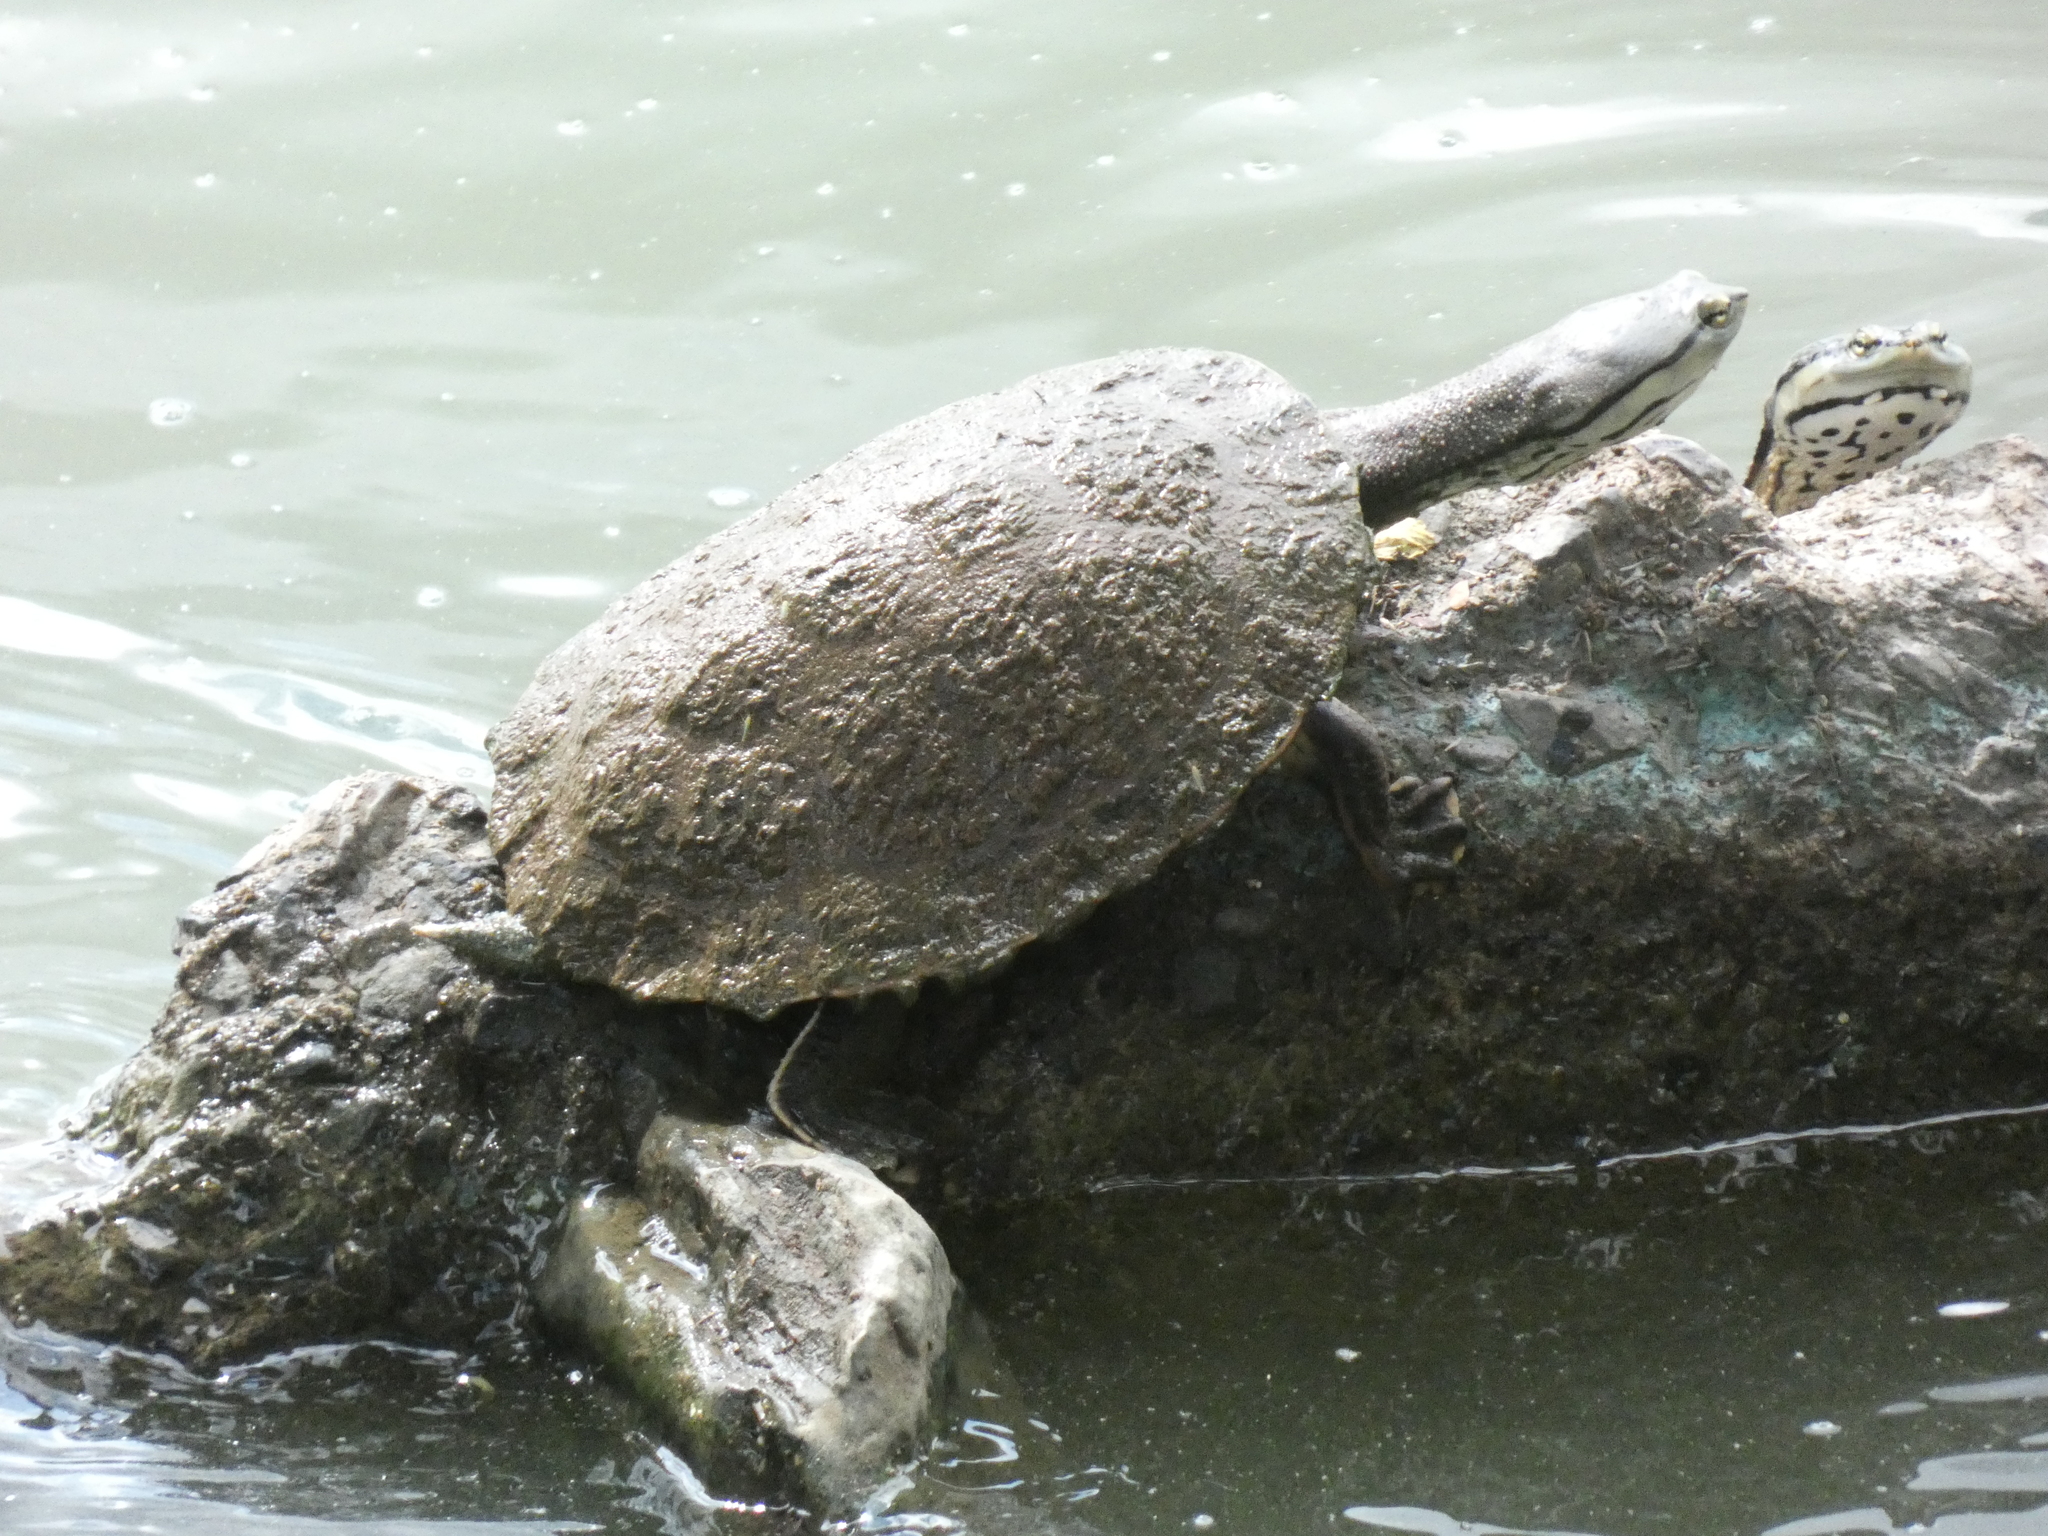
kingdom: Animalia
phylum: Chordata
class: Testudines
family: Chelidae
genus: Phrynops
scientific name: Phrynops geoffroanus
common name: Side-necked turtle of geoffroy
